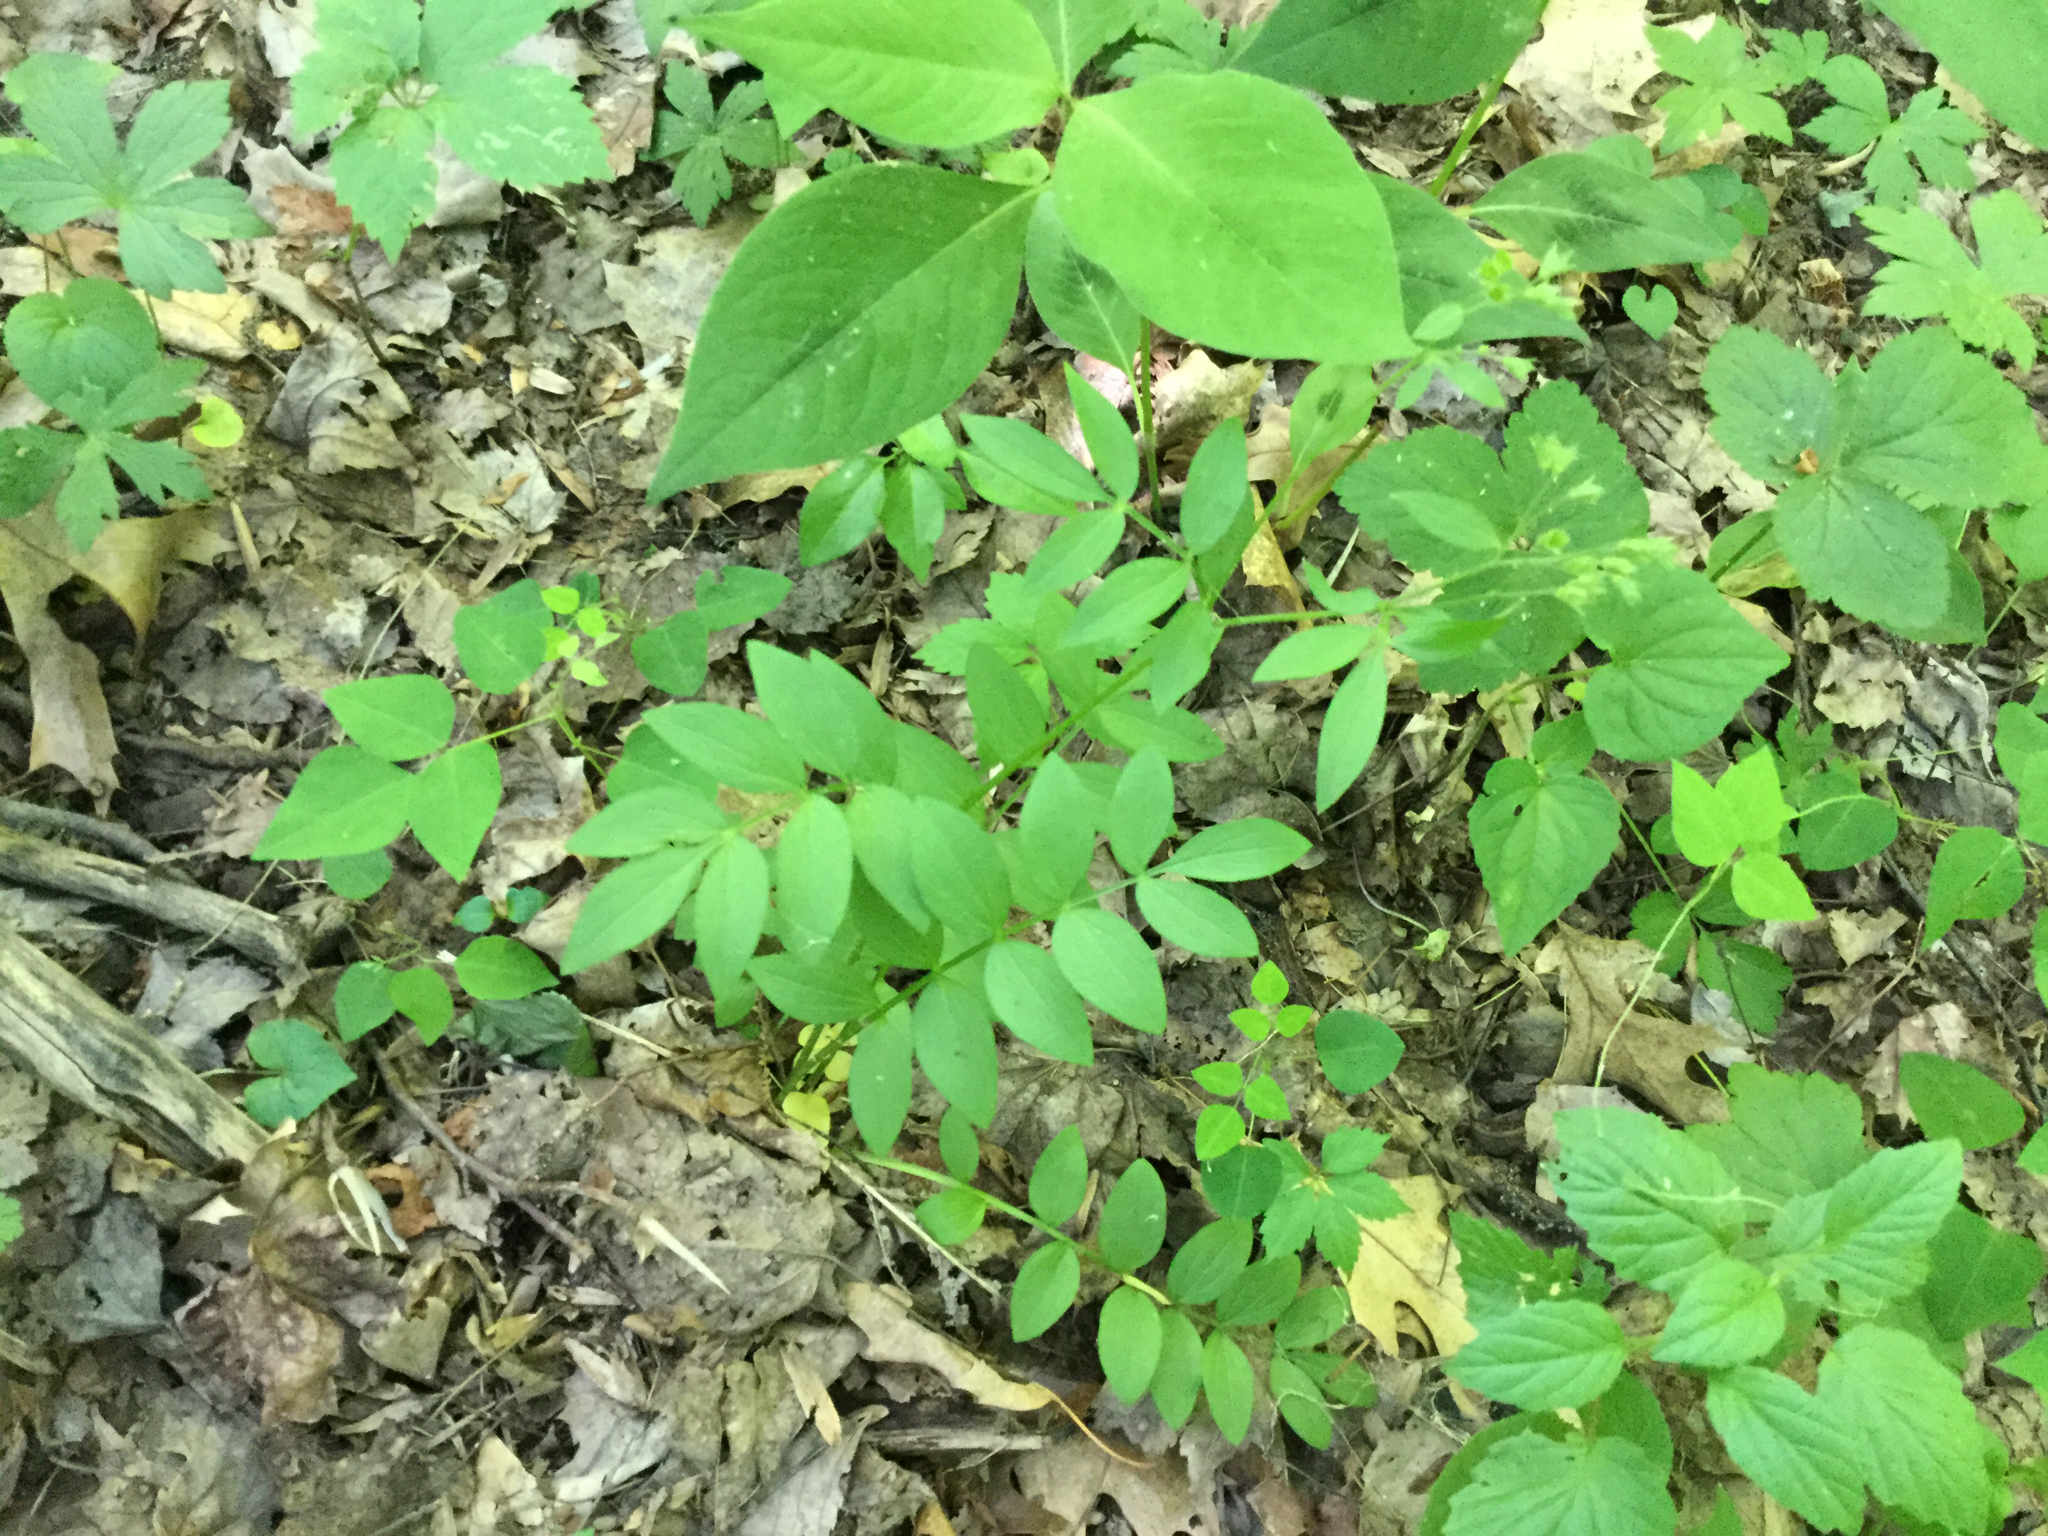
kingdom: Plantae
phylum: Tracheophyta
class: Magnoliopsida
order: Ericales
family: Polemoniaceae
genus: Polemonium
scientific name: Polemonium reptans
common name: Creeping jacob's-ladder
